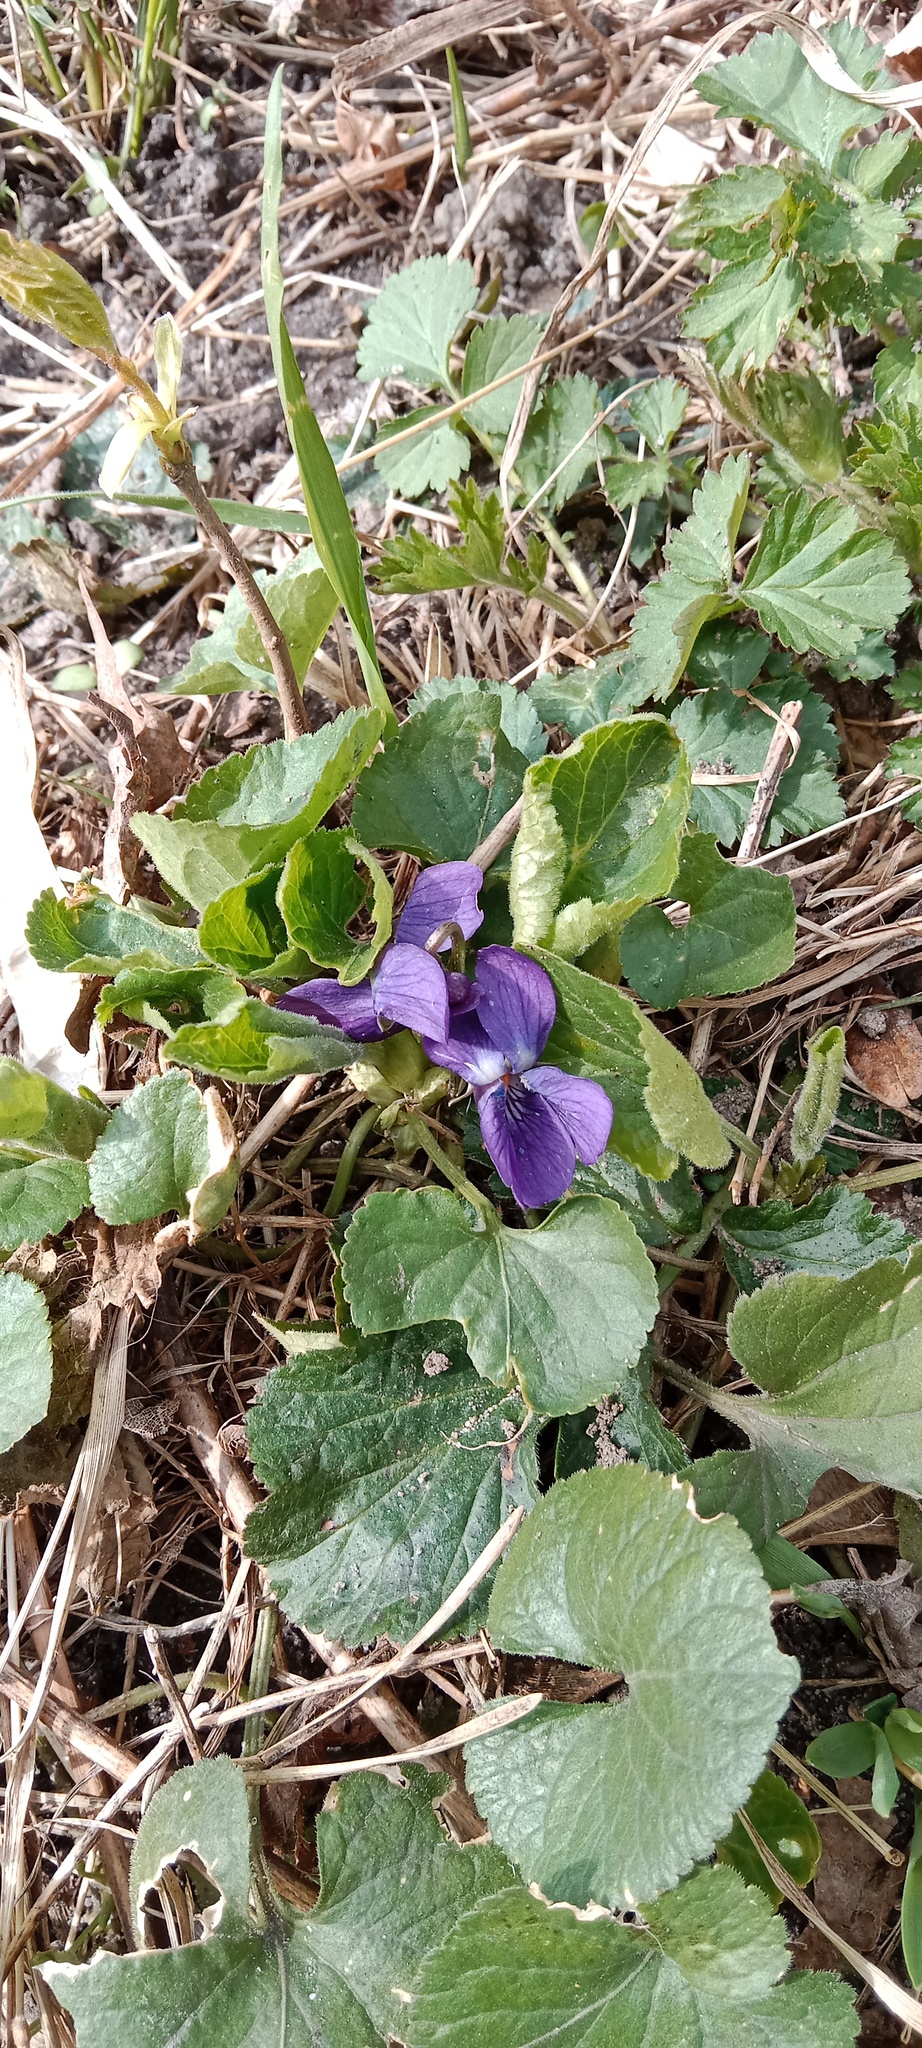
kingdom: Plantae
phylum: Tracheophyta
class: Magnoliopsida
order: Malpighiales
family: Violaceae
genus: Viola
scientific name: Viola odorata
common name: Sweet violet
